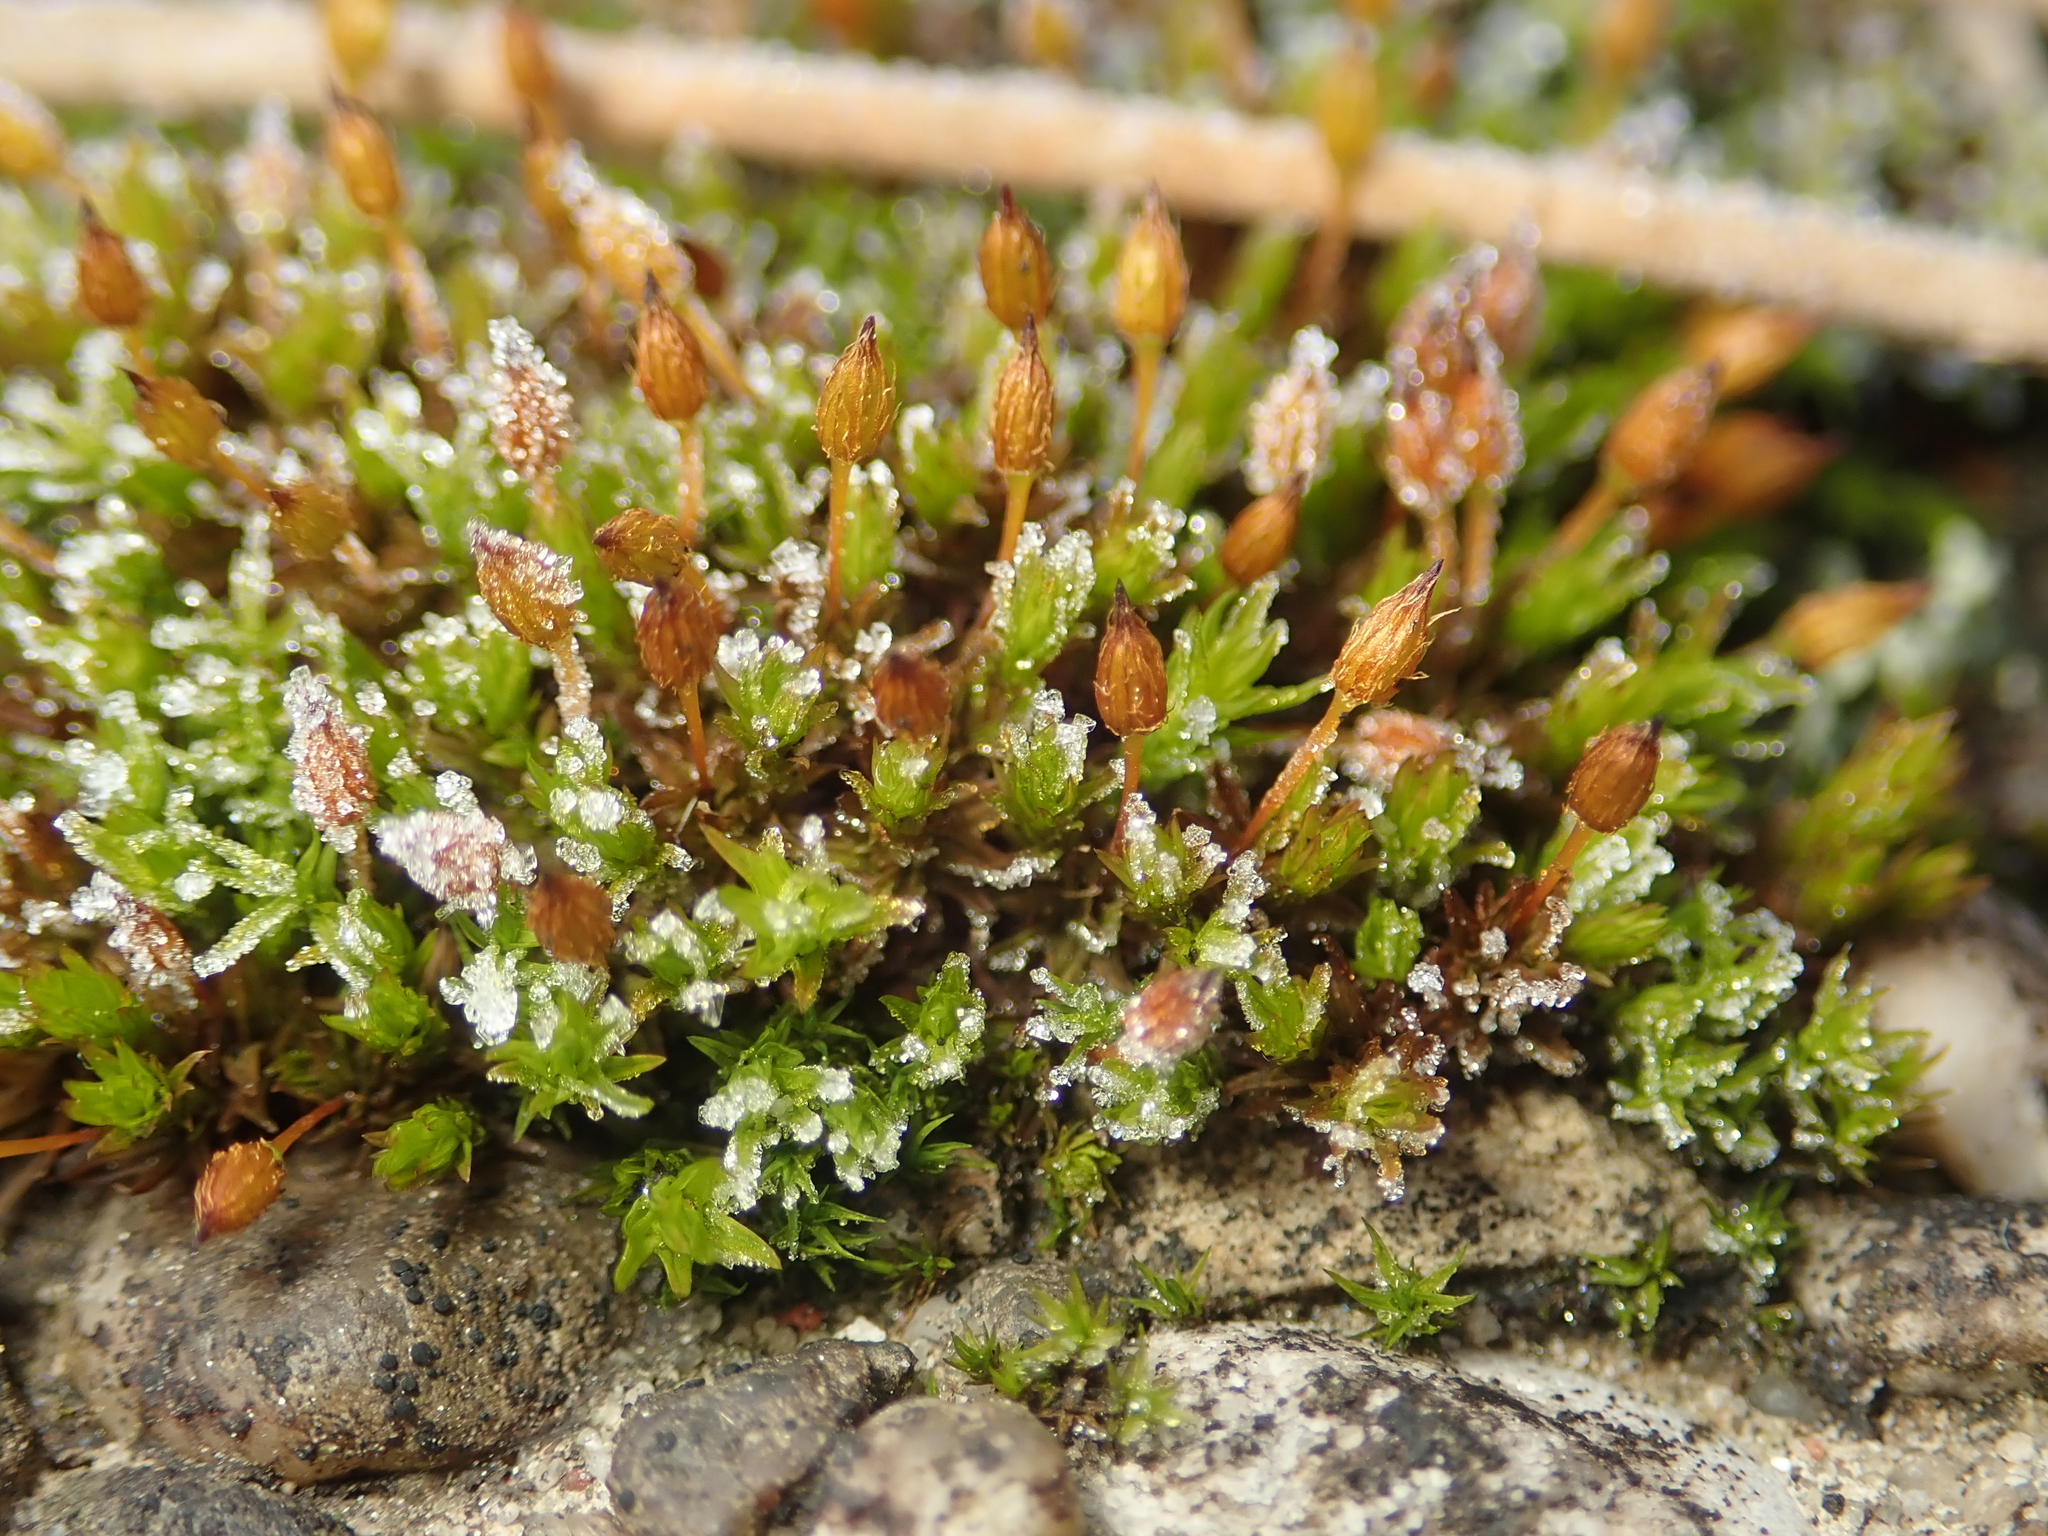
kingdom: Plantae
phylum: Bryophyta
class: Bryopsida
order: Orthotrichales
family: Orthotrichaceae
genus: Orthotrichum
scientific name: Orthotrichum anomalum
